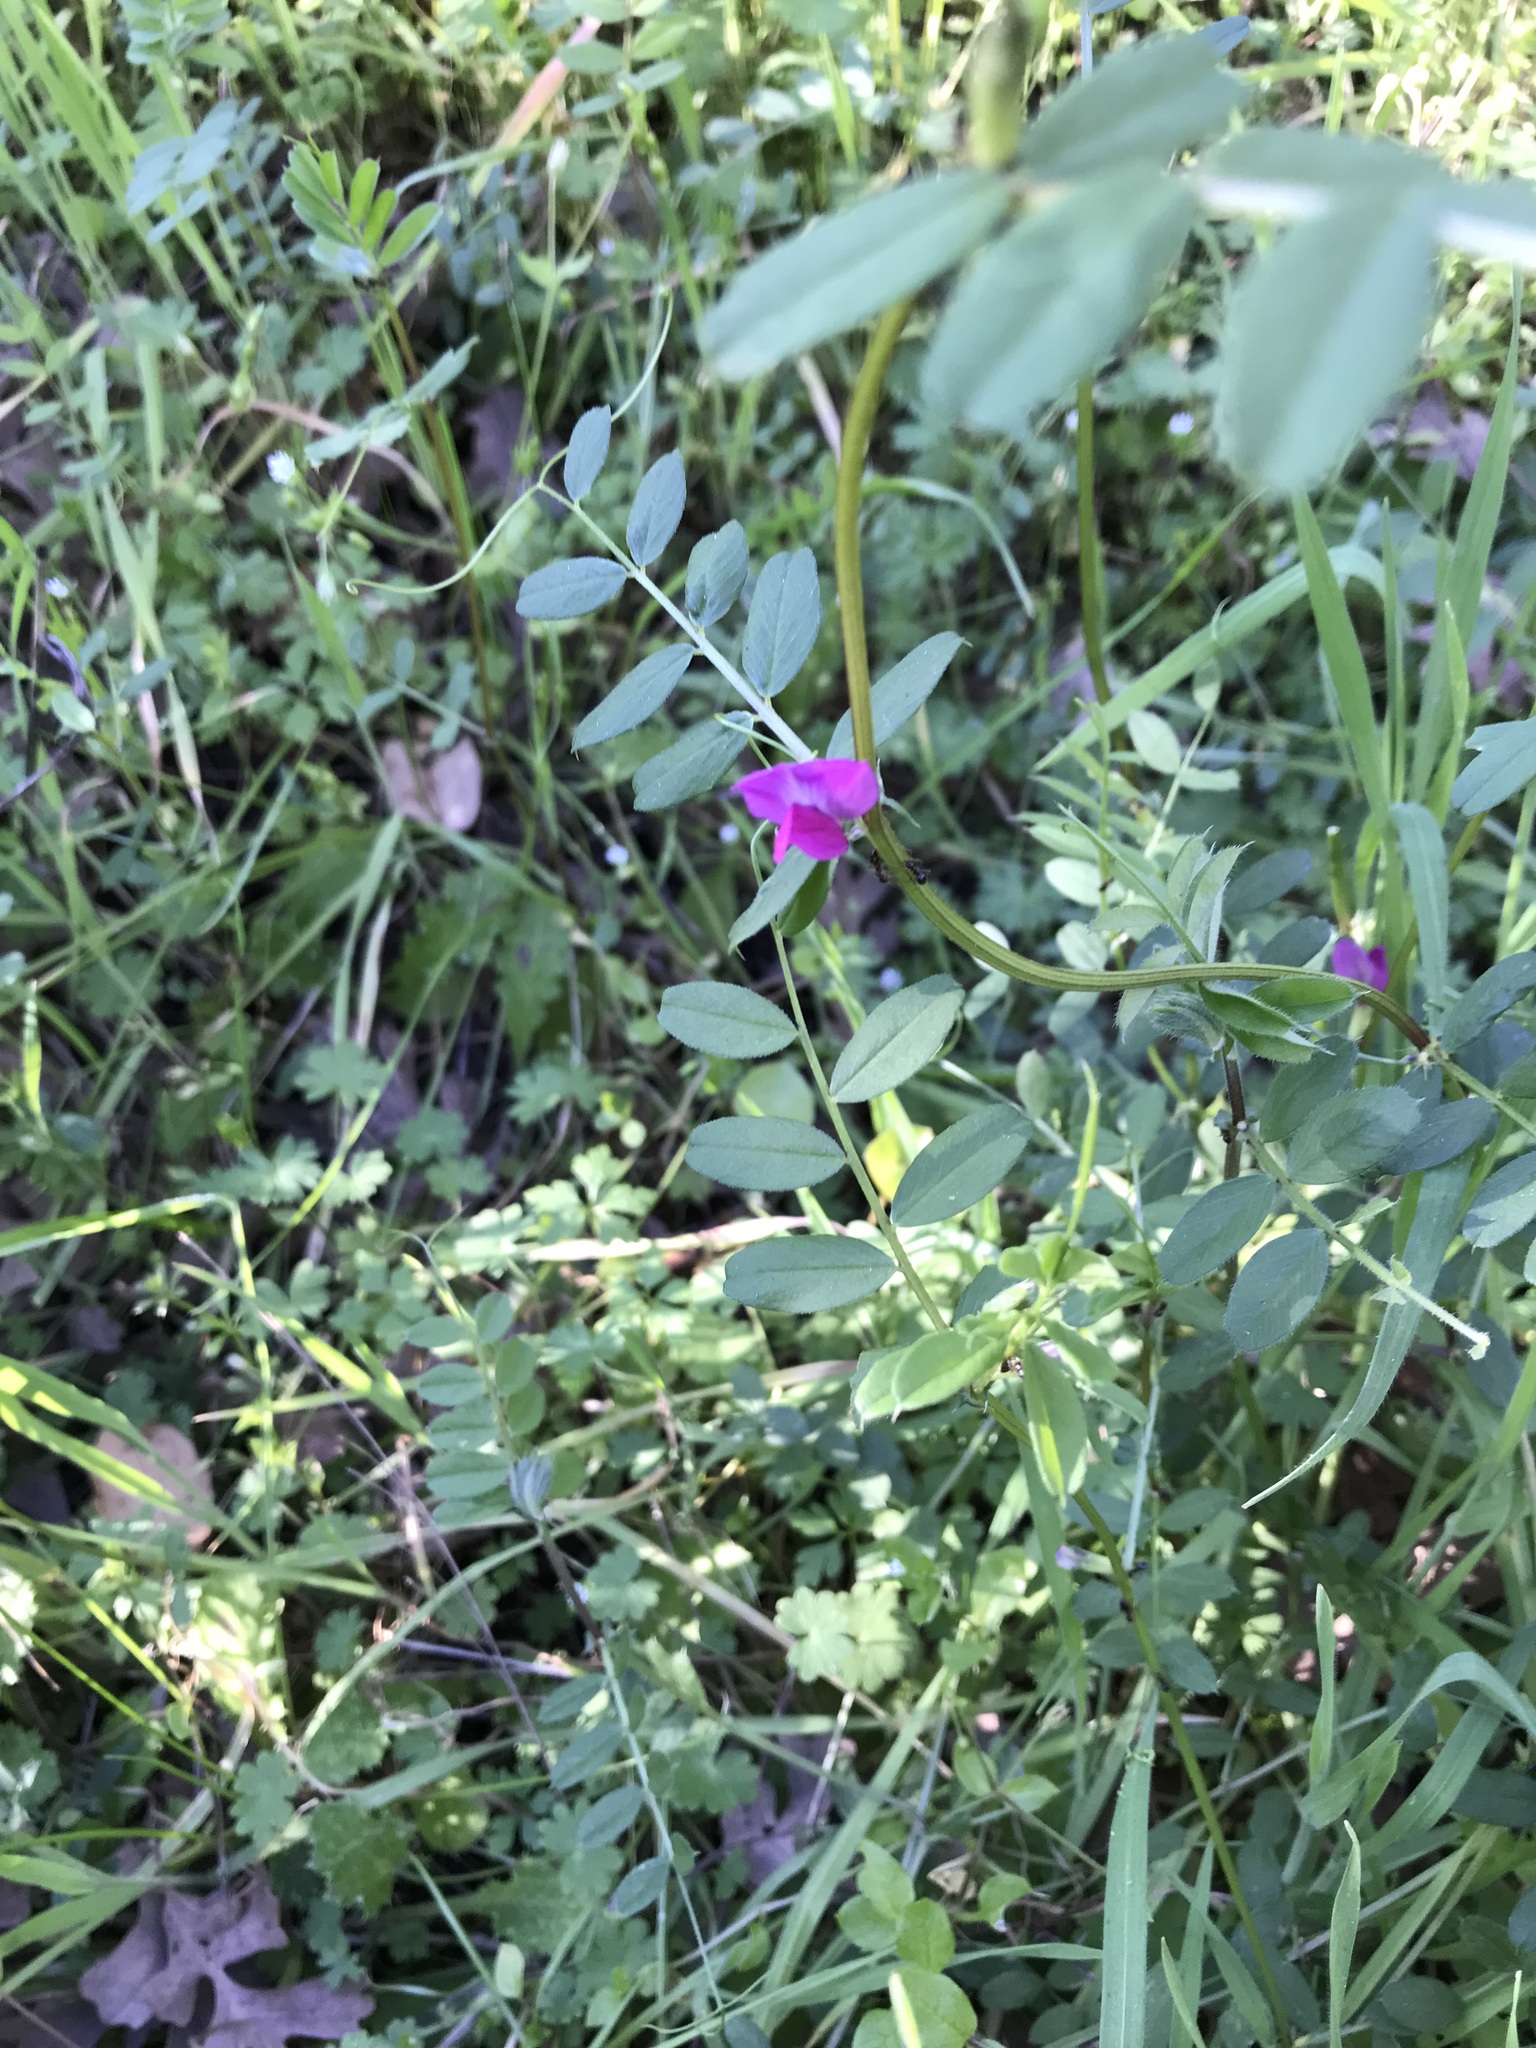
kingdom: Plantae
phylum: Tracheophyta
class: Magnoliopsida
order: Fabales
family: Fabaceae
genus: Vicia
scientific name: Vicia sativa
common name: Garden vetch
